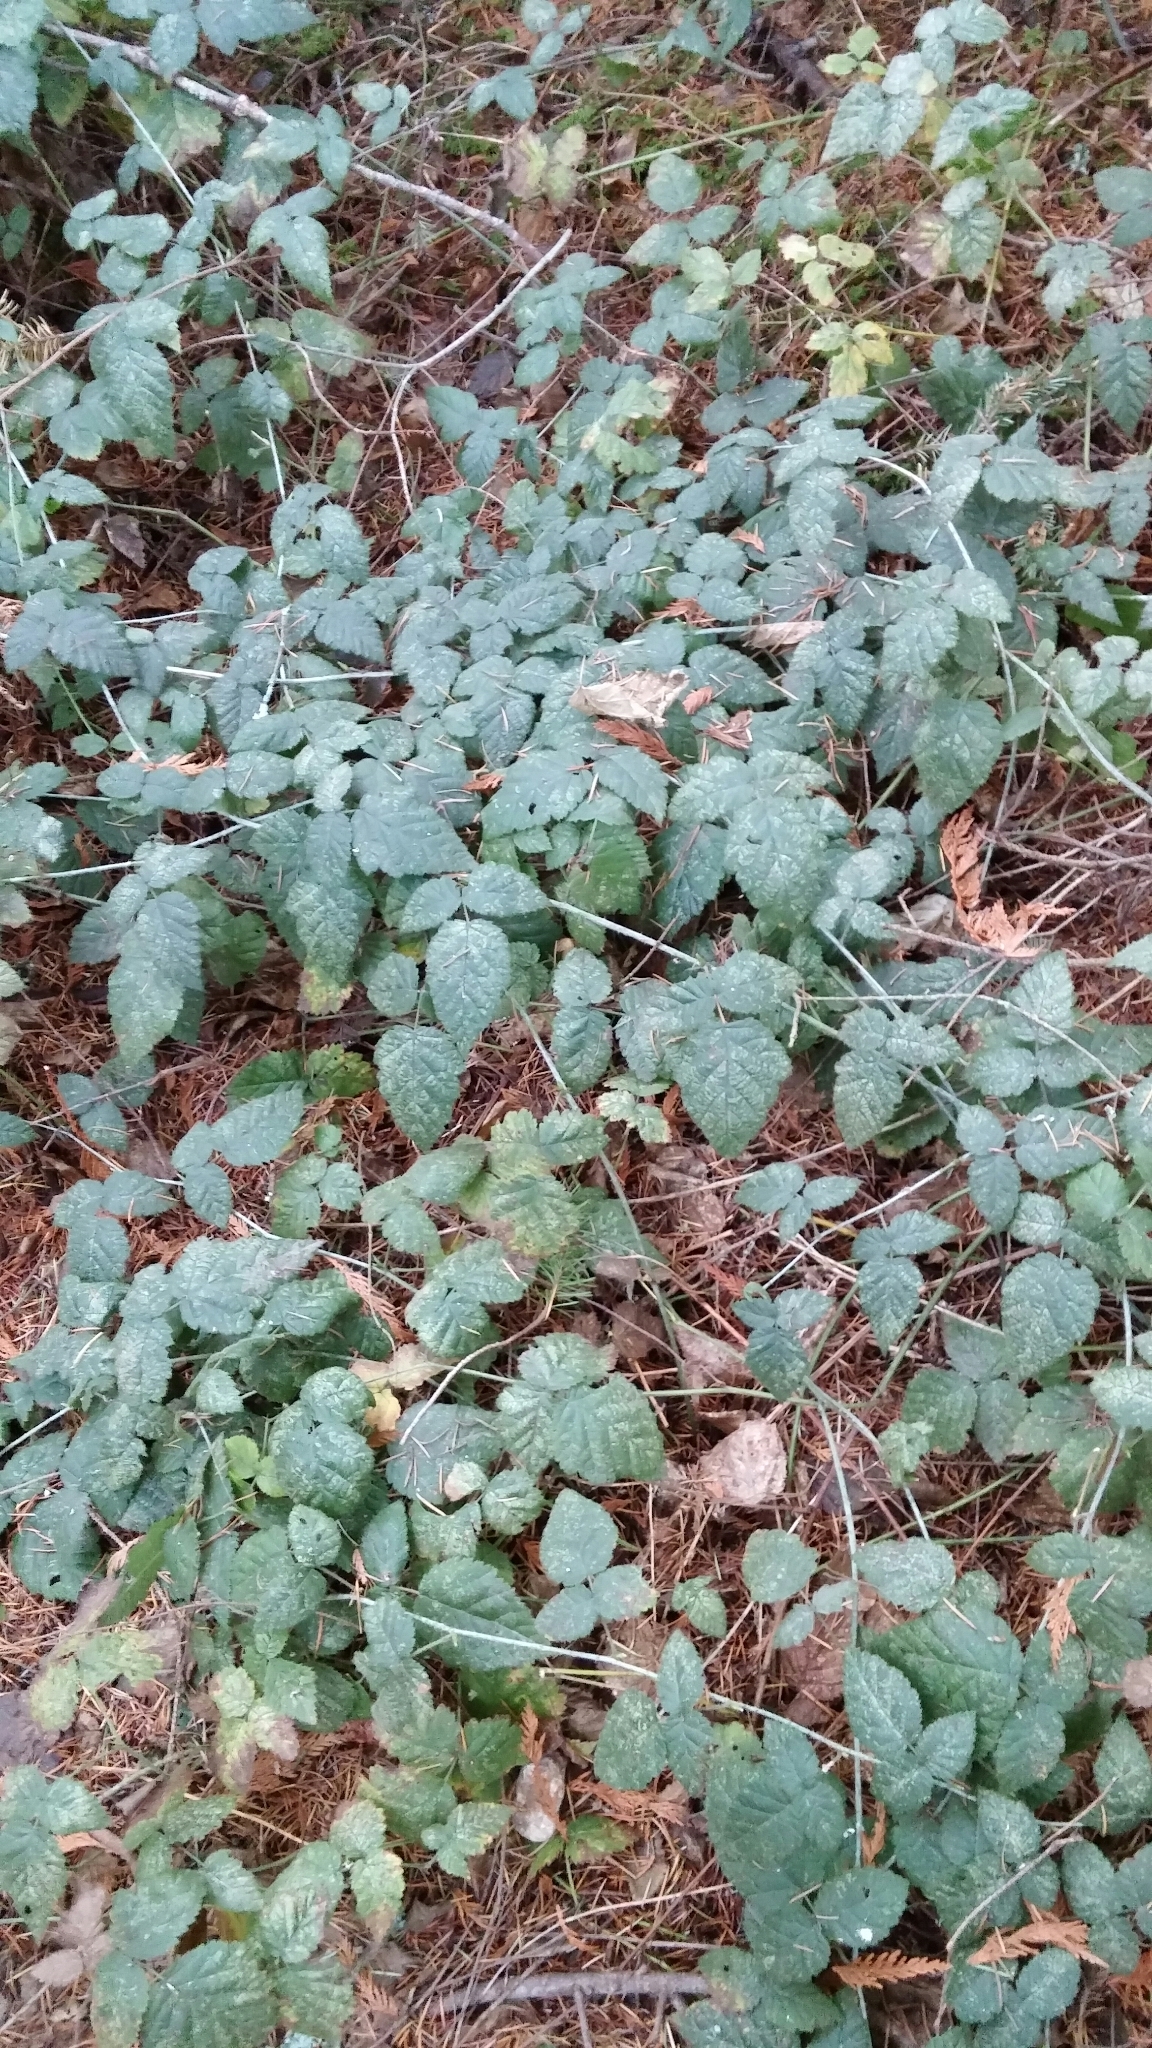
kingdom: Plantae
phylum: Tracheophyta
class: Magnoliopsida
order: Rosales
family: Rosaceae
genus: Rubus
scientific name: Rubus ursinus
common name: Pacific blackberry
